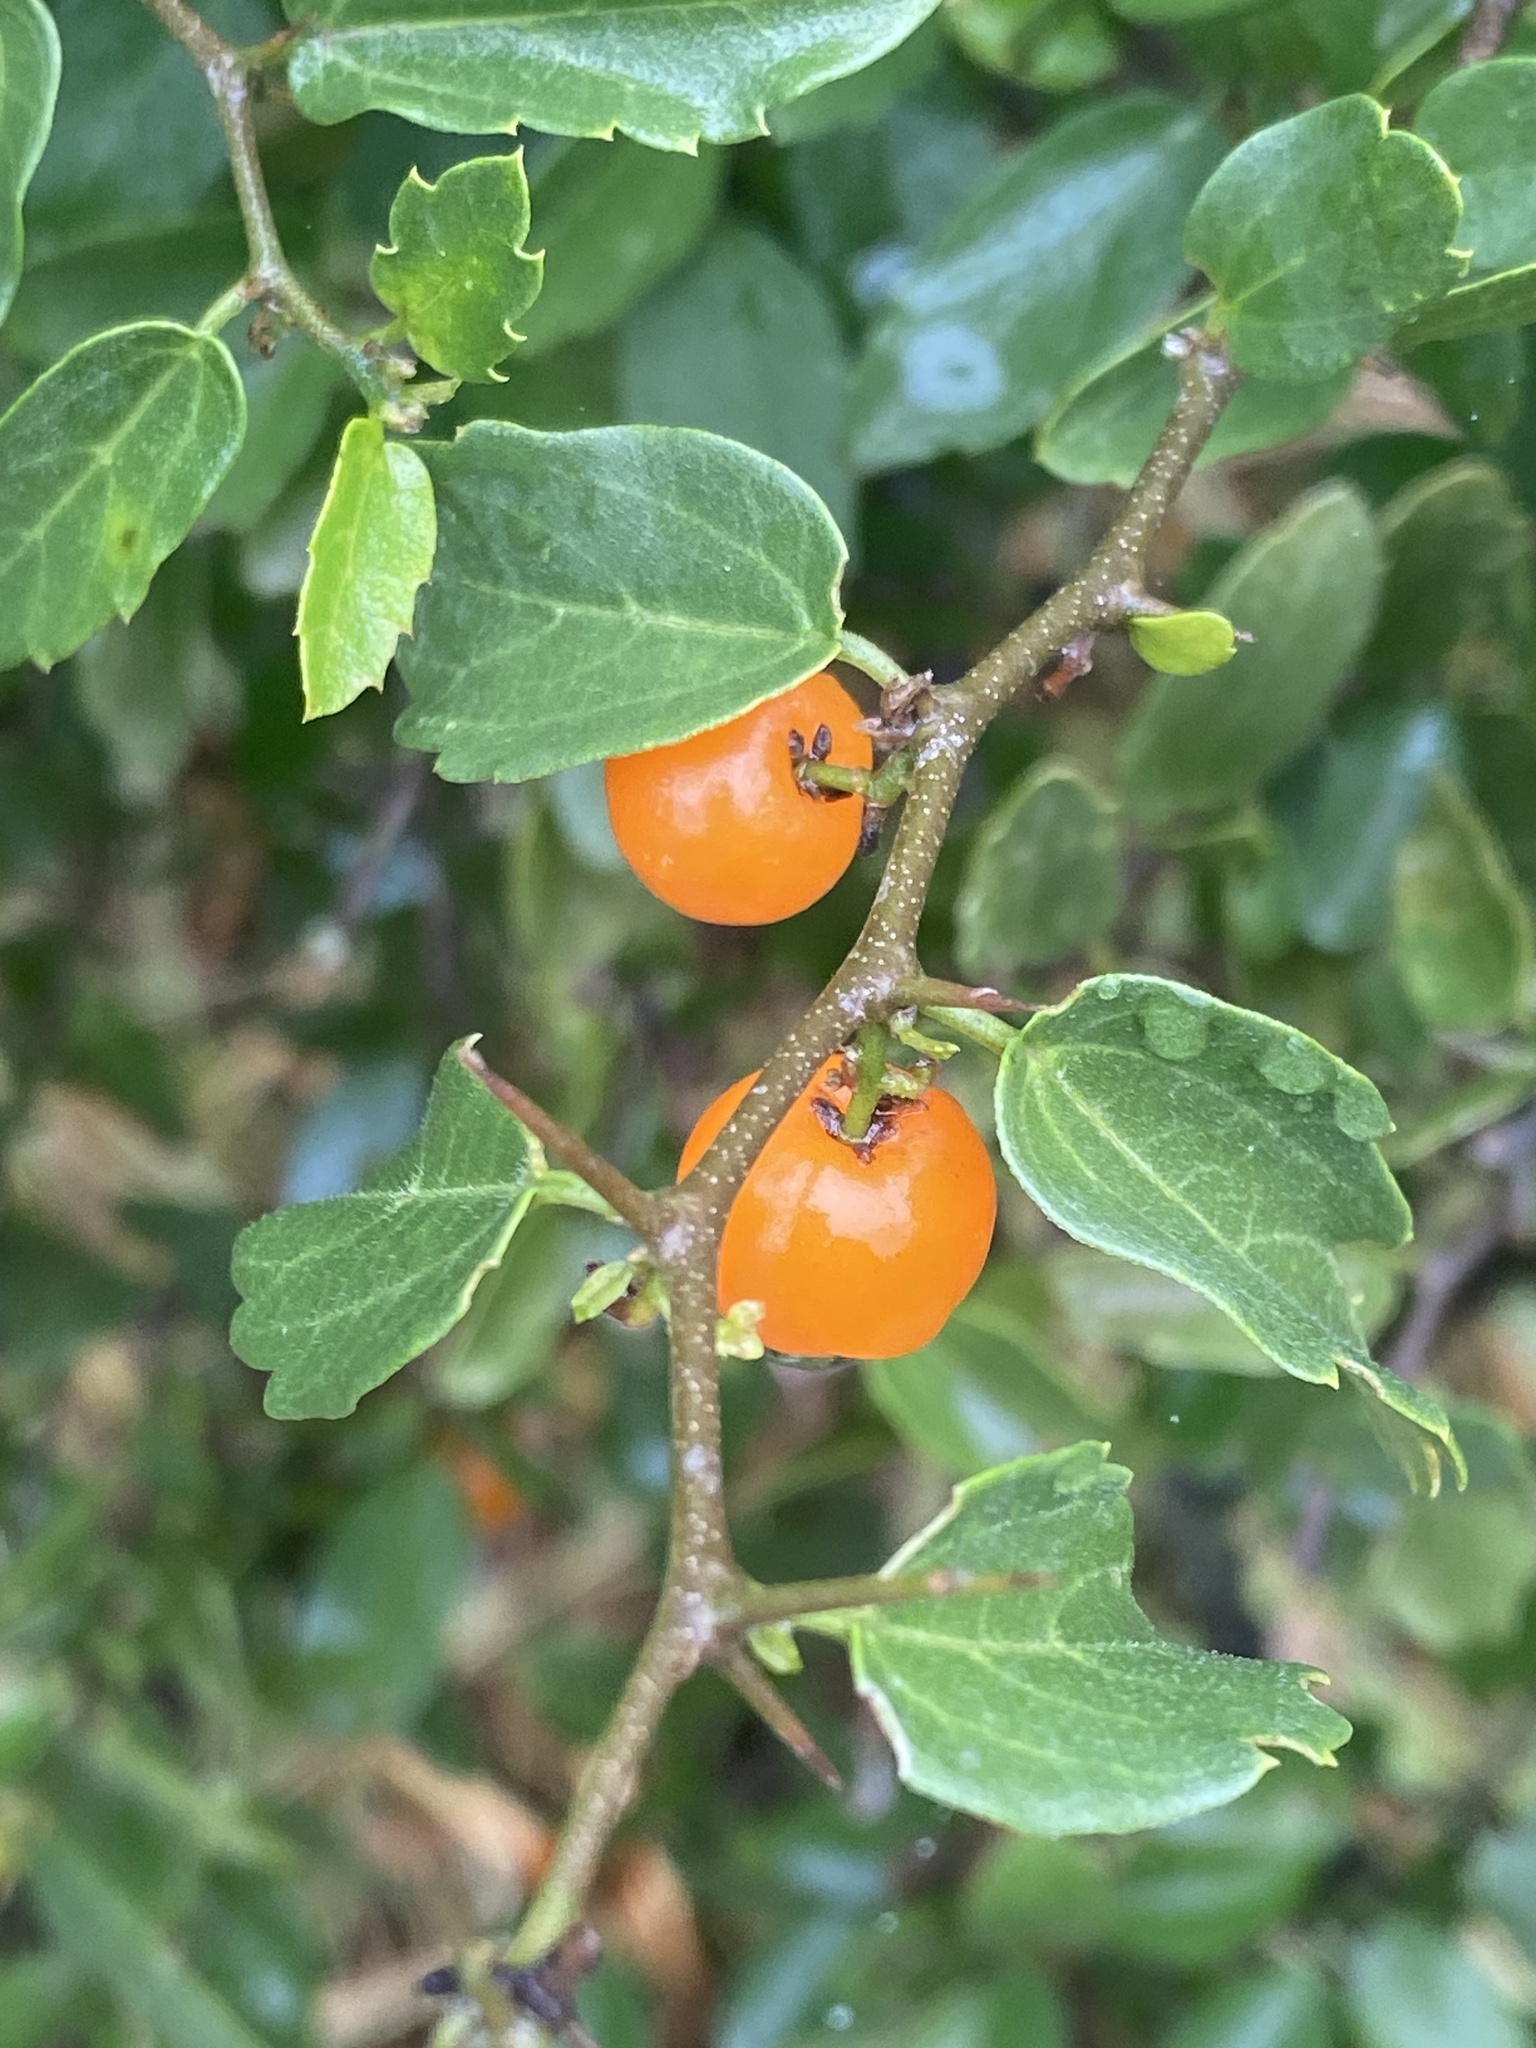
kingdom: Plantae
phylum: Tracheophyta
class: Magnoliopsida
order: Rosales
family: Cannabaceae
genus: Celtis
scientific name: Celtis pallida
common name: Desert hackberry
